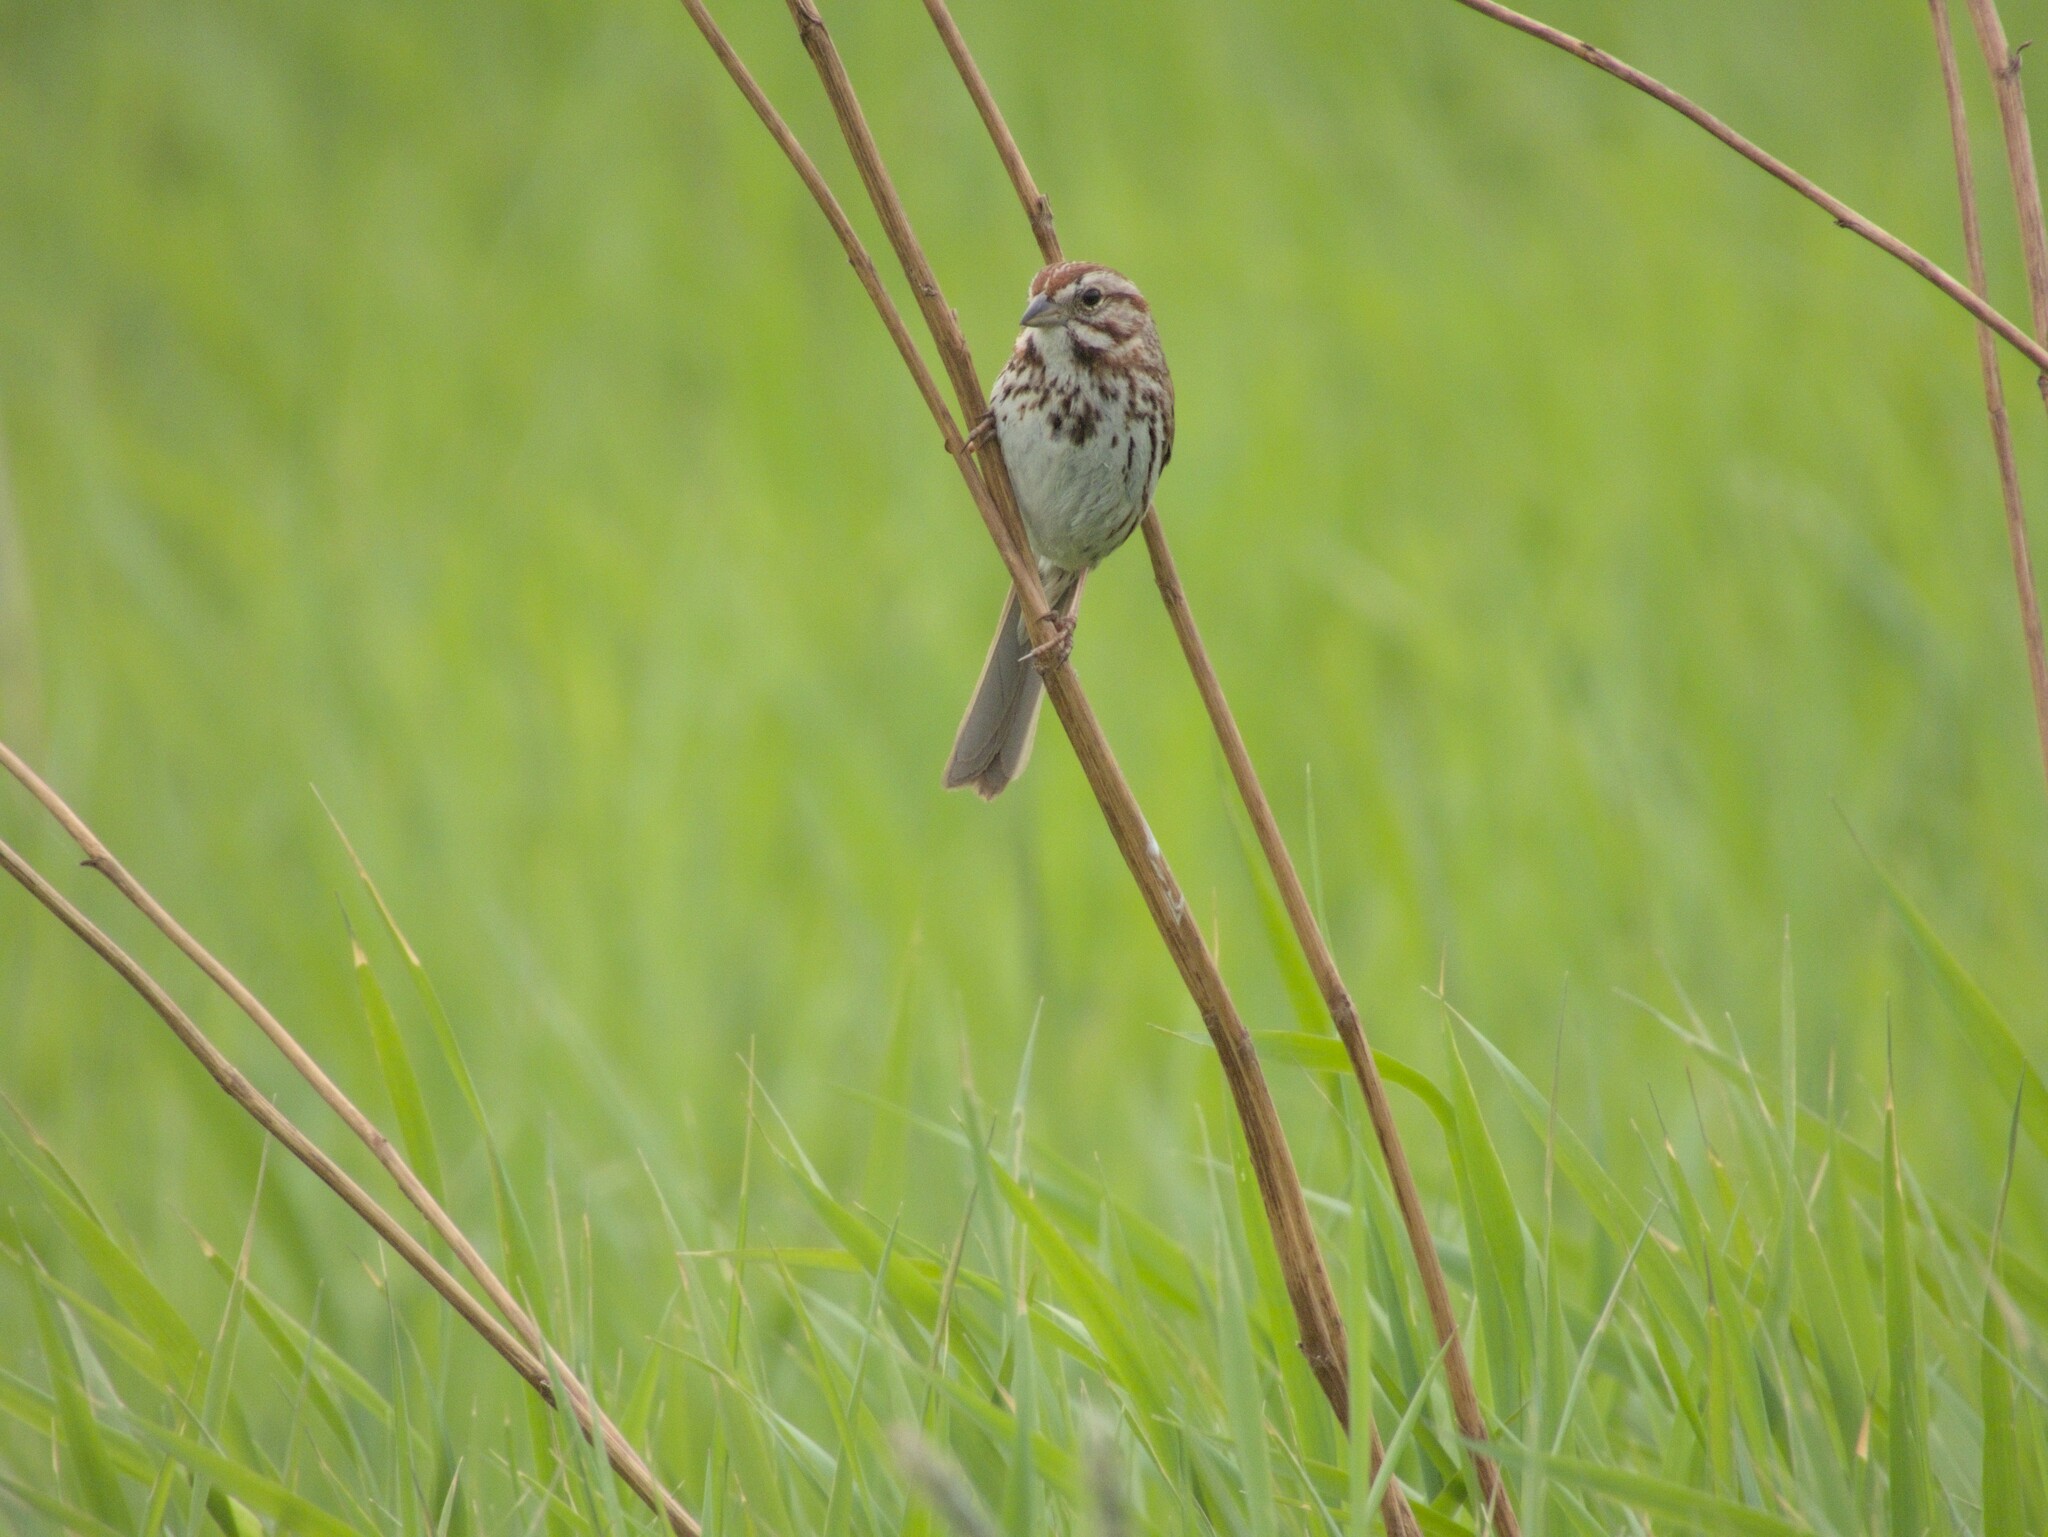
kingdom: Animalia
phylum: Chordata
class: Aves
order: Passeriformes
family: Passerellidae
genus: Melospiza
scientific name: Melospiza melodia
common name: Song sparrow
